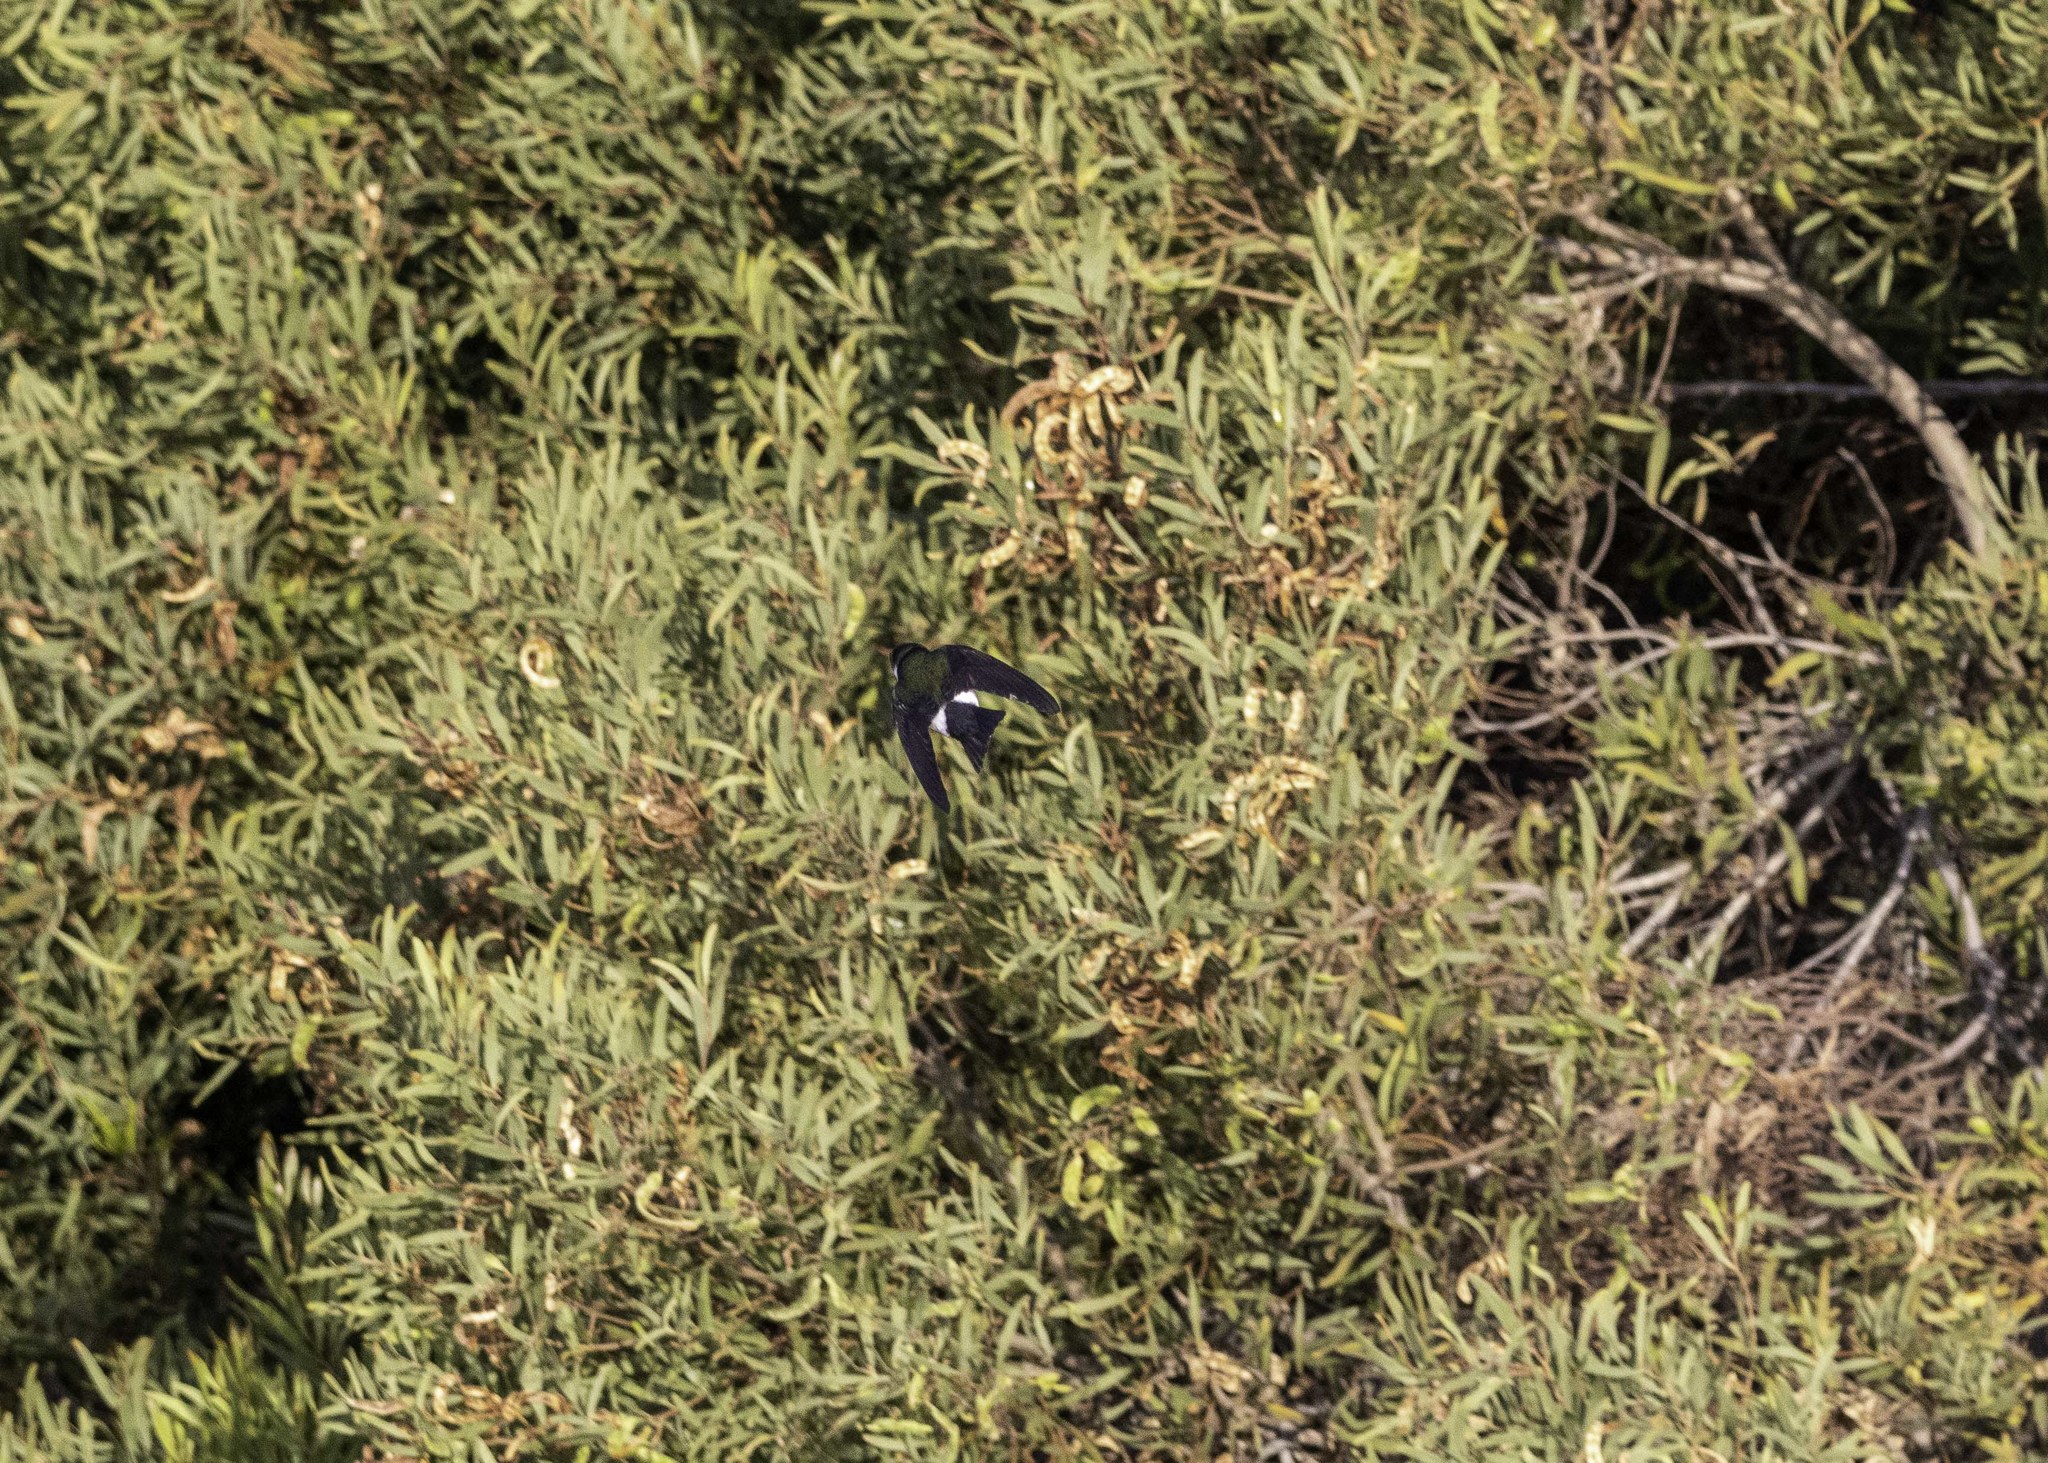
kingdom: Animalia
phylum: Chordata
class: Aves
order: Passeriformes
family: Hirundinidae
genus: Tachycineta
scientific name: Tachycineta thalassina
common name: Violet-green swallow
